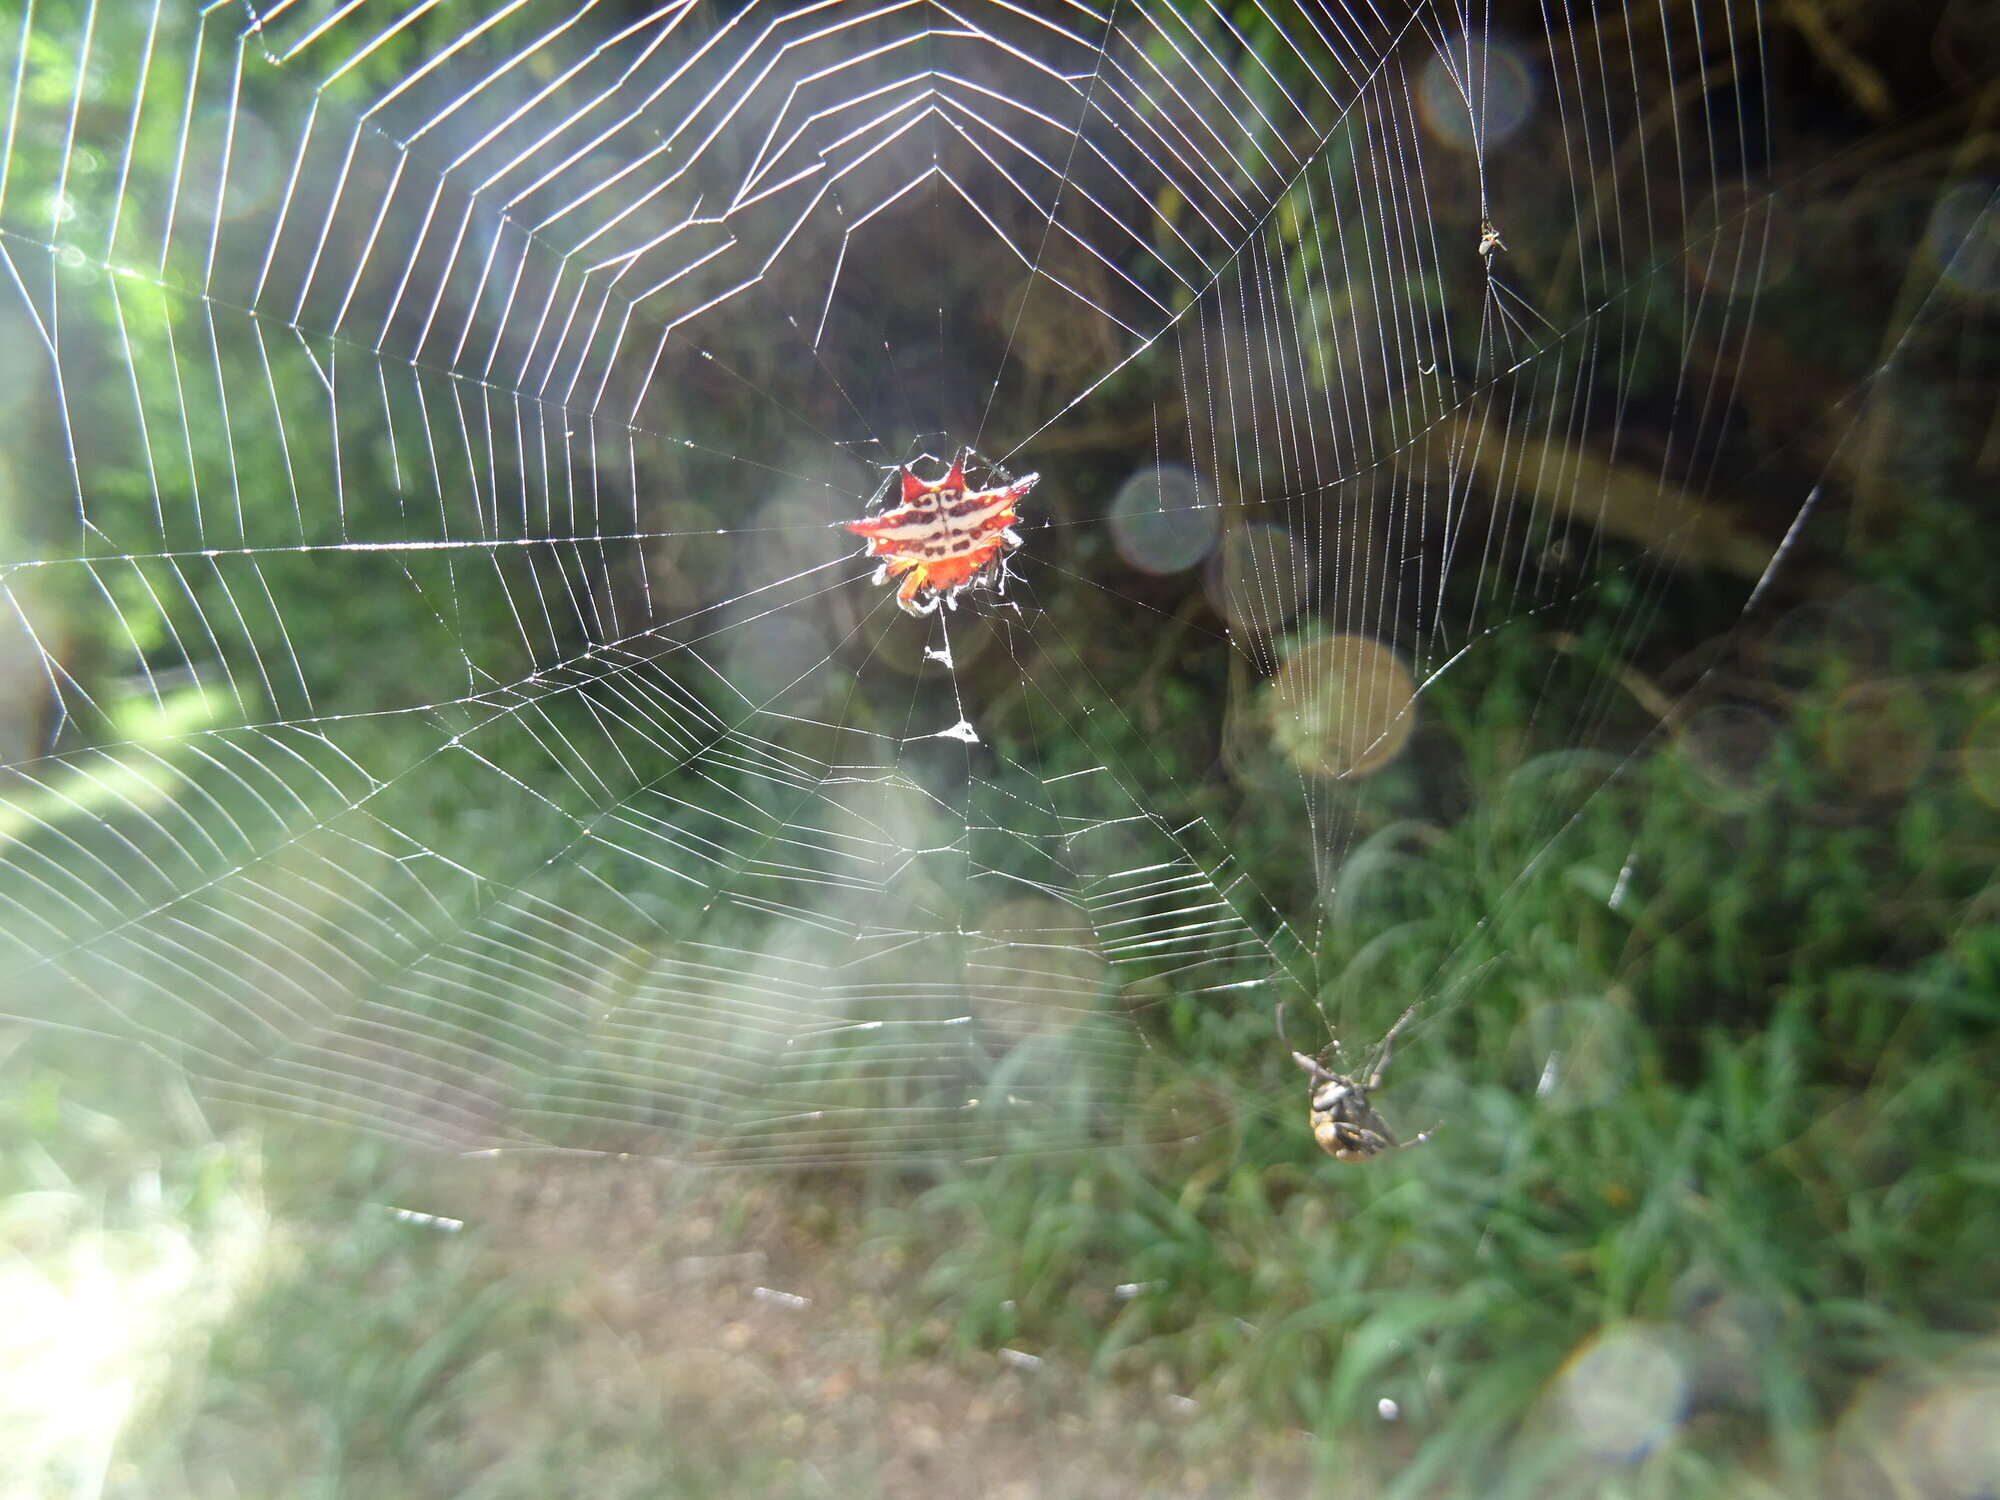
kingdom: Animalia
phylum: Arthropoda
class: Arachnida
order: Araneae
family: Araneidae
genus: Gasteracantha
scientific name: Gasteracantha sanguinolenta
